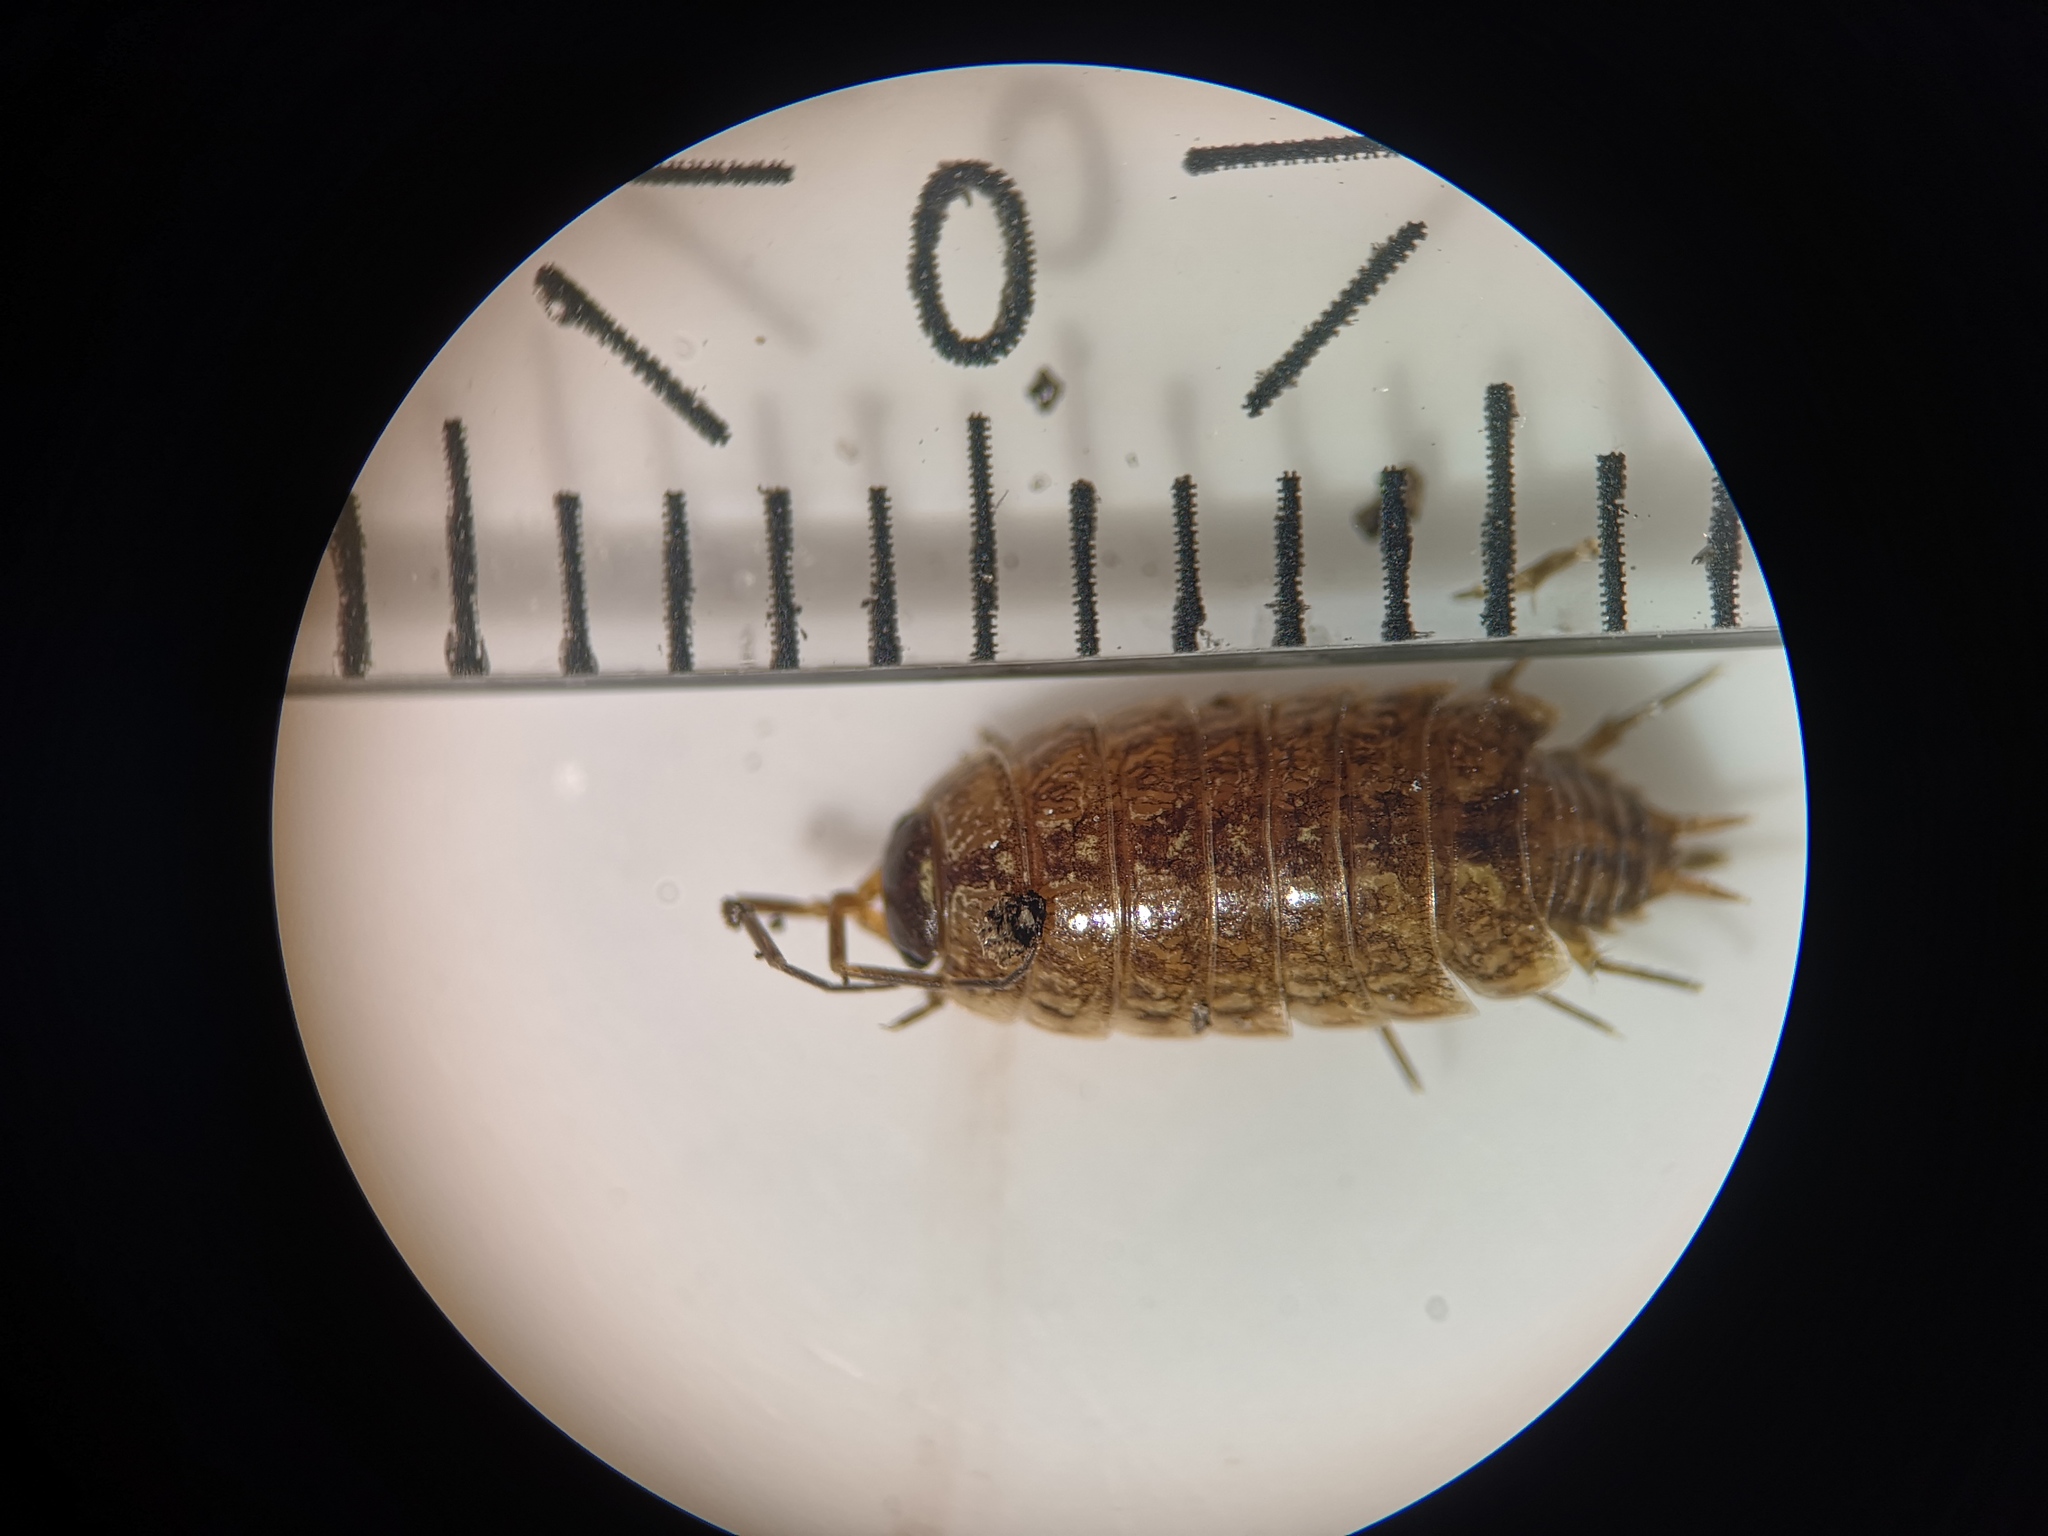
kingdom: Animalia
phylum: Arthropoda
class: Malacostraca
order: Isopoda
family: Philosciidae
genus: Philoscia
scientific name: Philoscia muscorum
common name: Common striped woodlouse
